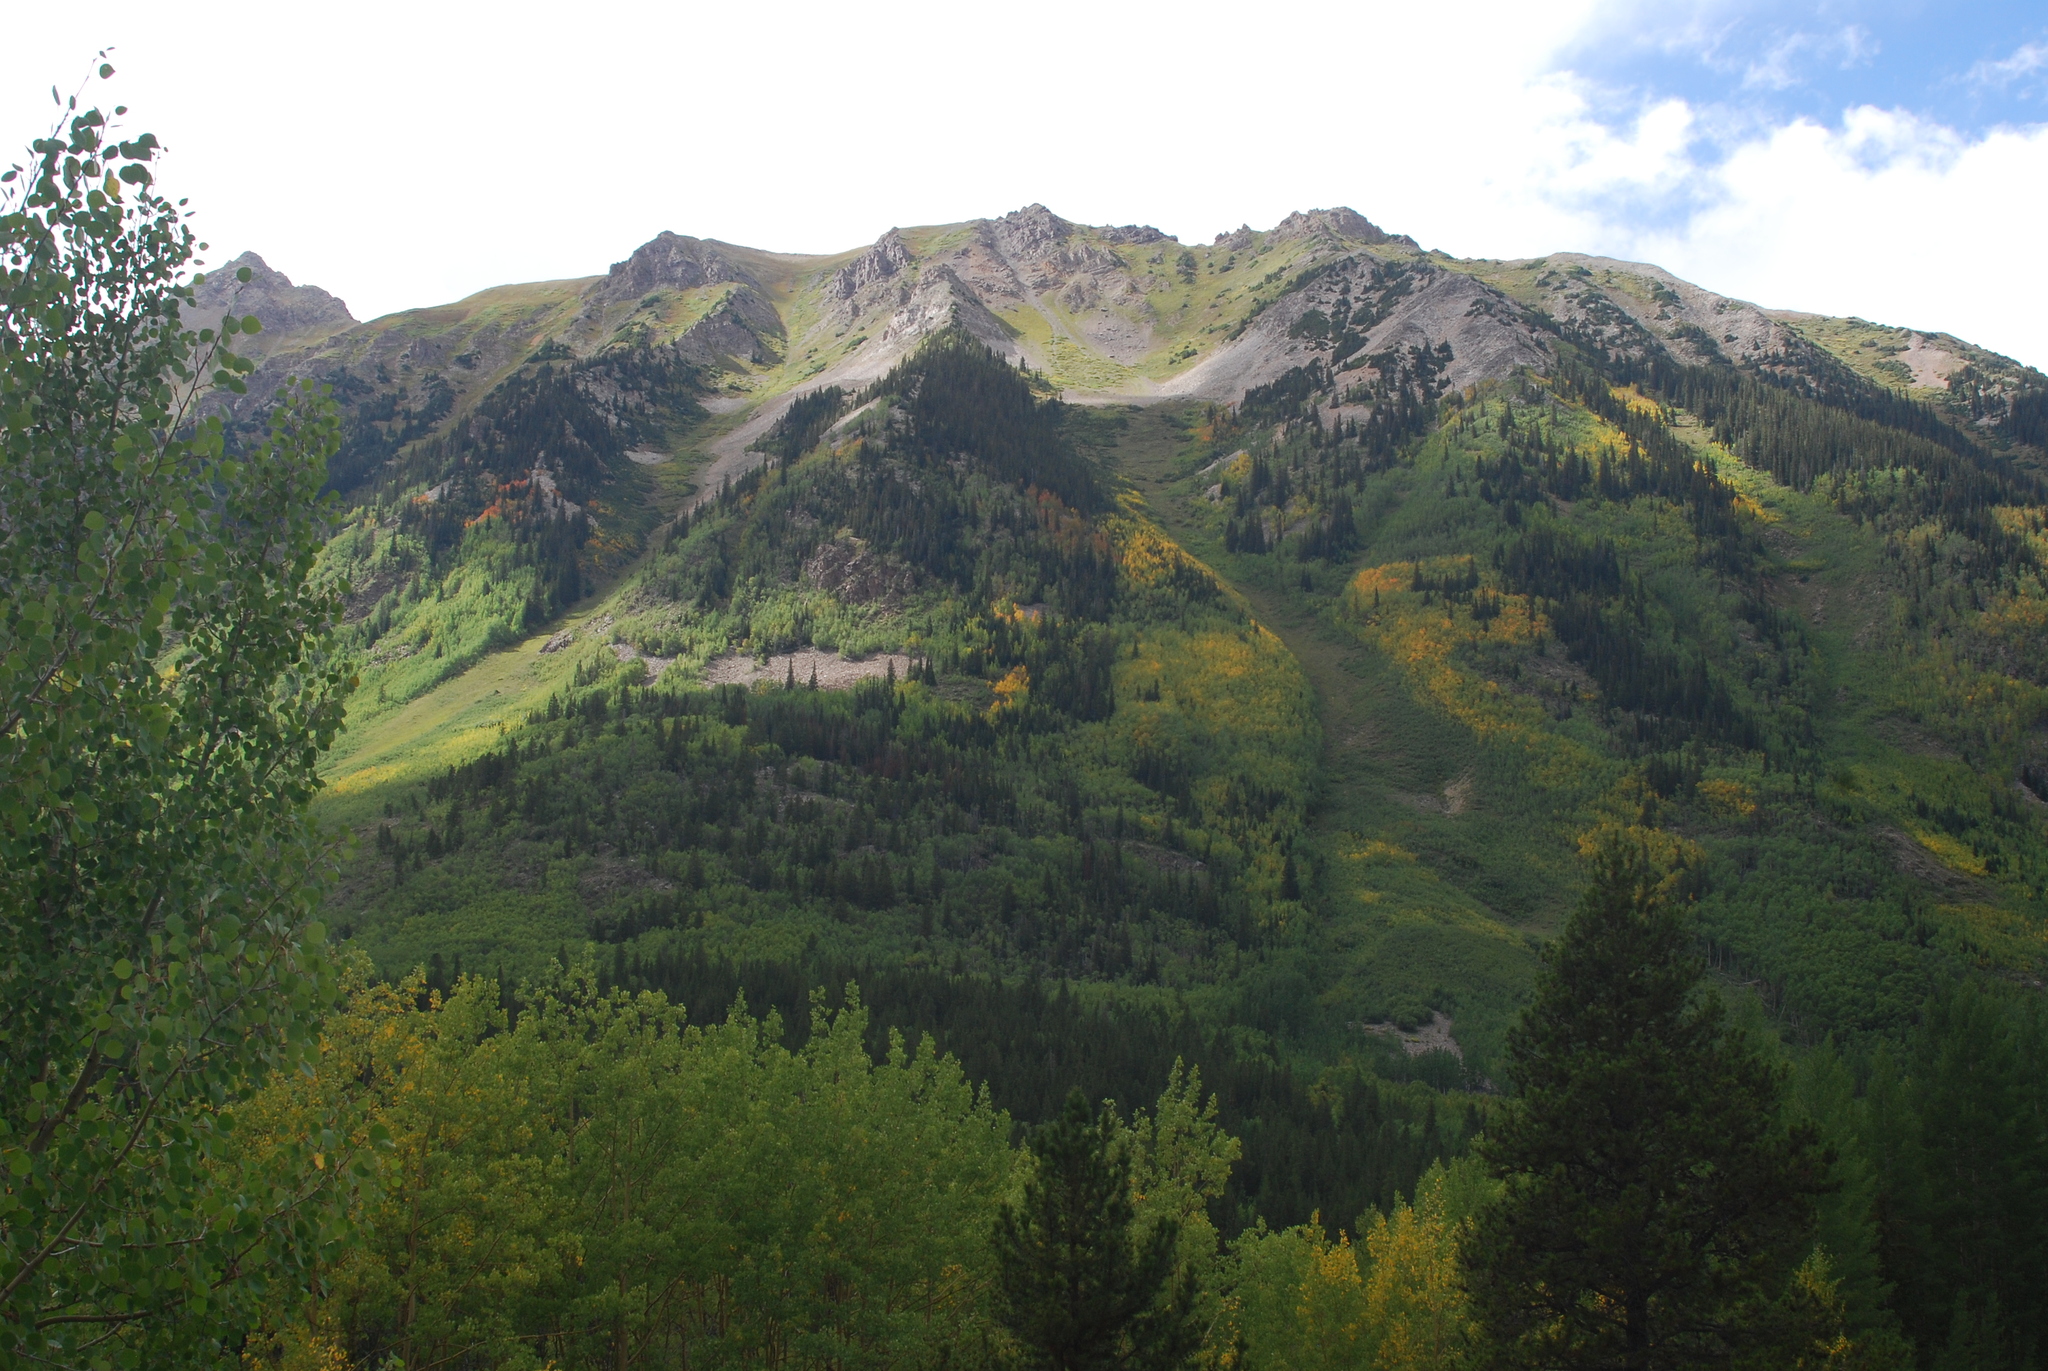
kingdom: Plantae
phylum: Tracheophyta
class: Magnoliopsida
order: Malpighiales
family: Salicaceae
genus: Populus
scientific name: Populus tremuloides
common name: Quaking aspen
